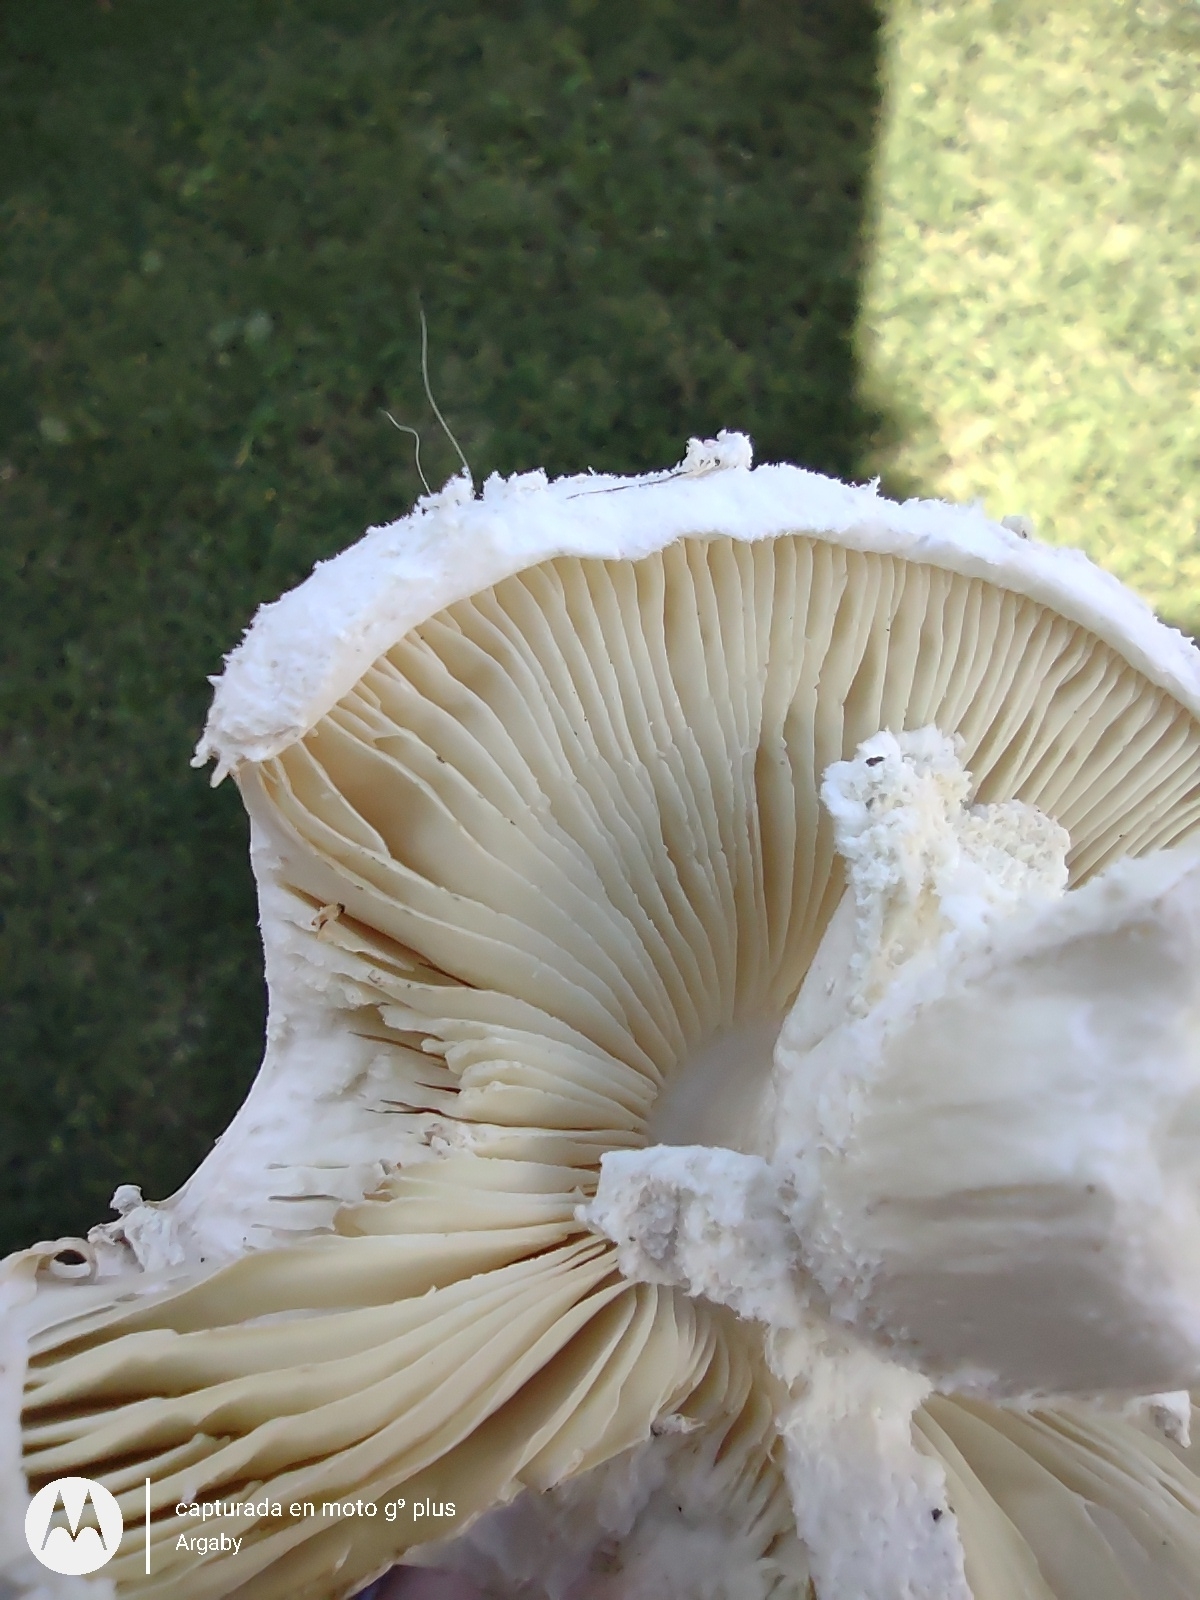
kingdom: Fungi
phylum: Basidiomycota
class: Agaricomycetes
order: Agaricales
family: Amanitaceae
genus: Aspidella
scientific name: Aspidella foetens
